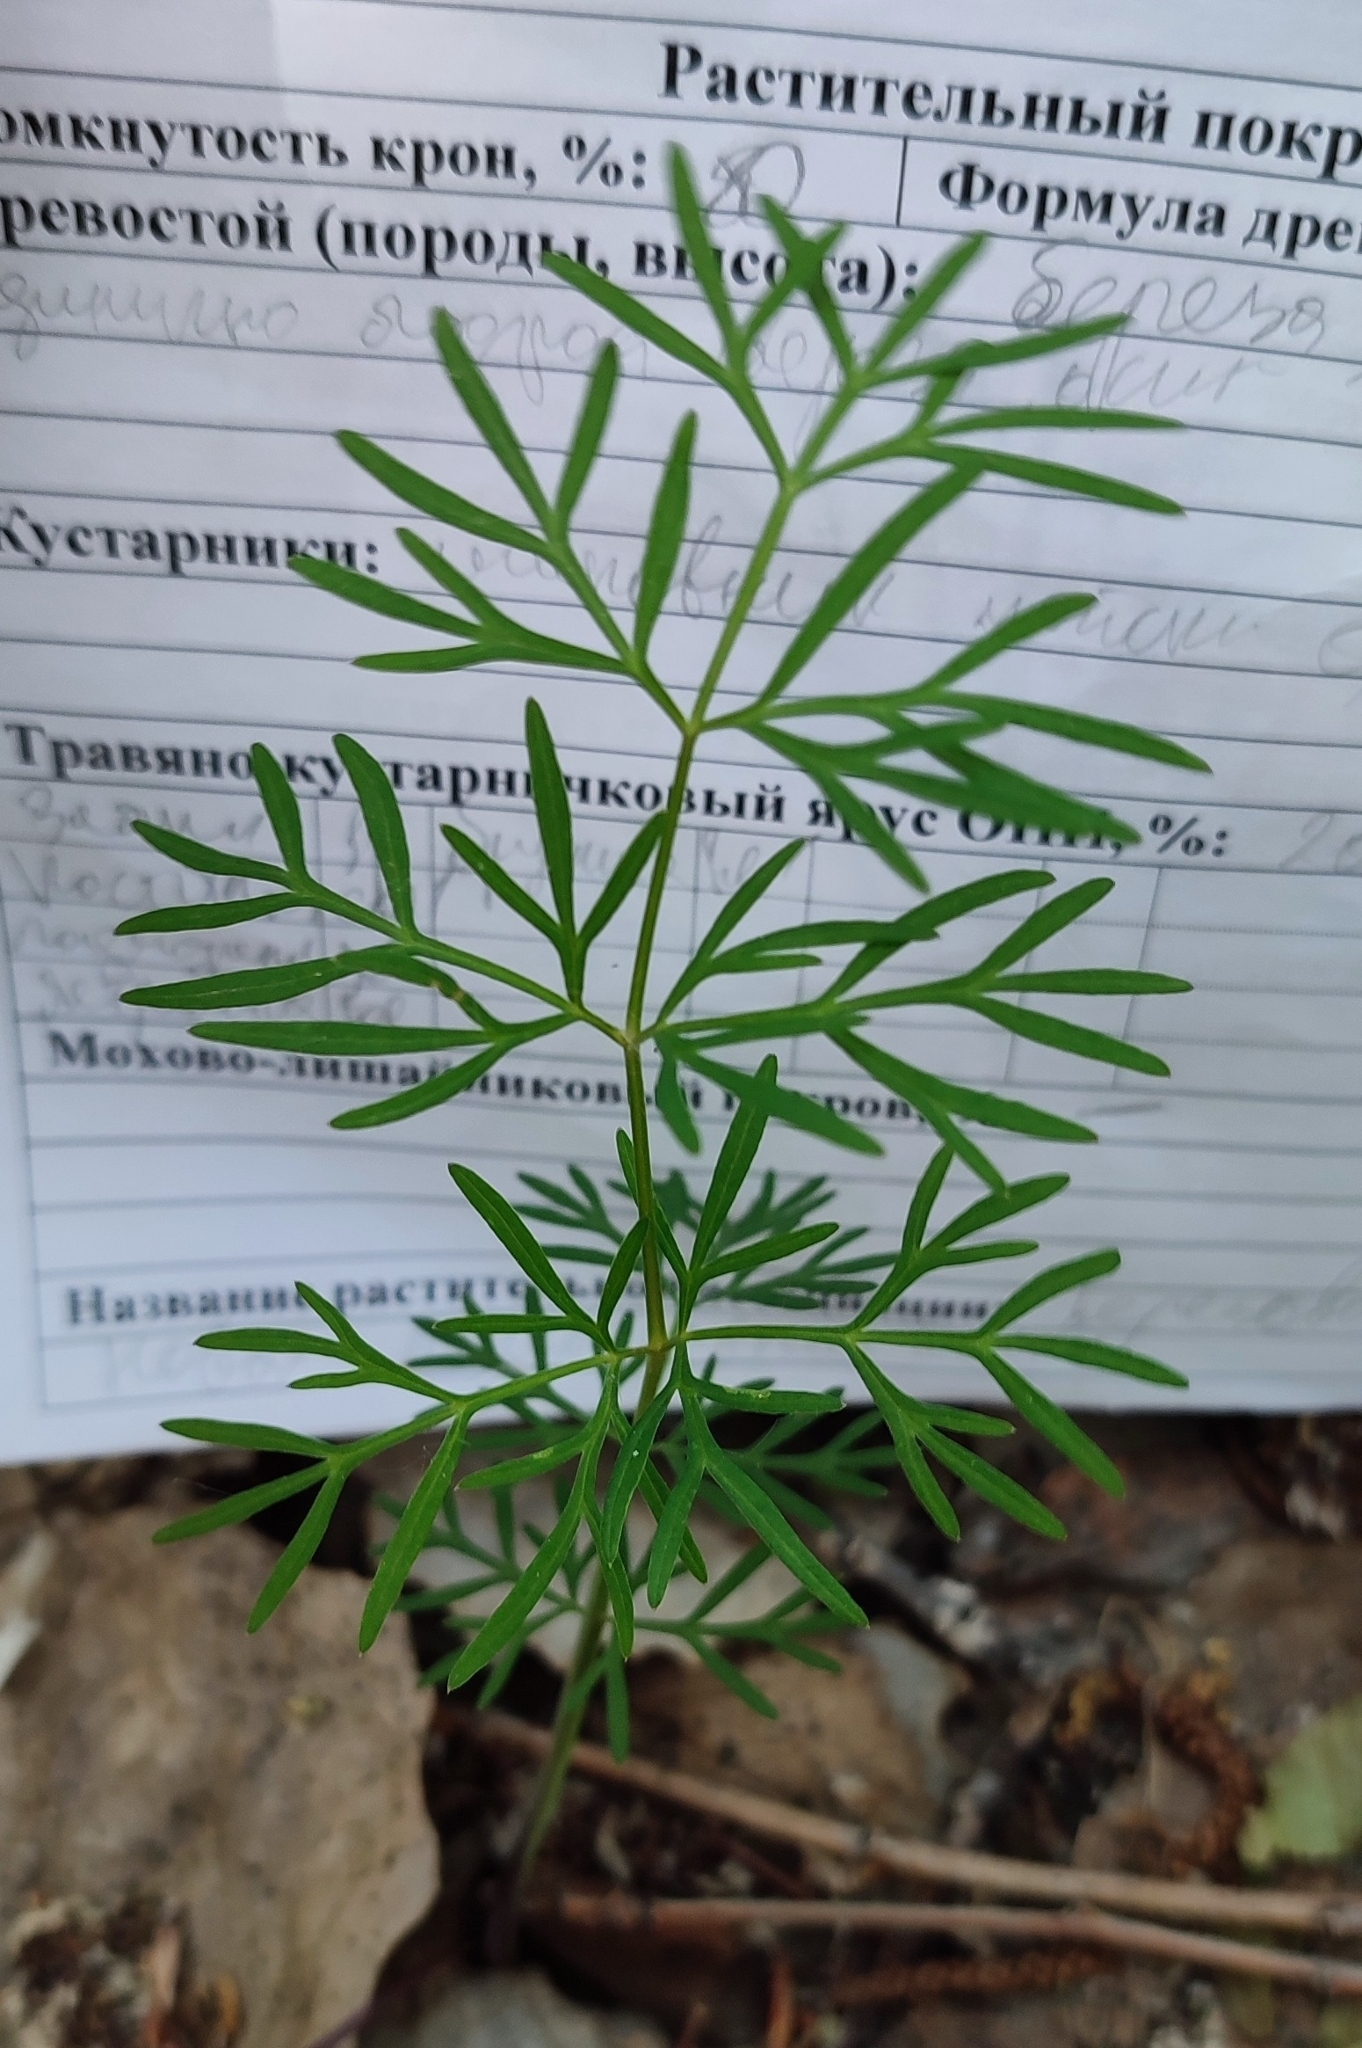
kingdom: Plantae
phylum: Tracheophyta
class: Magnoliopsida
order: Apiales
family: Apiaceae
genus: Kadenia
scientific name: Kadenia dubia
